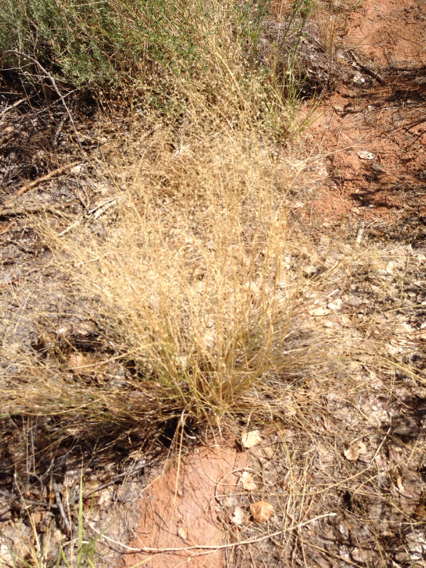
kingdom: Plantae
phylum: Tracheophyta
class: Liliopsida
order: Poales
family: Poaceae
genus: Eriocoma
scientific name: Eriocoma hymenoides
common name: Indian mountain ricegrass
